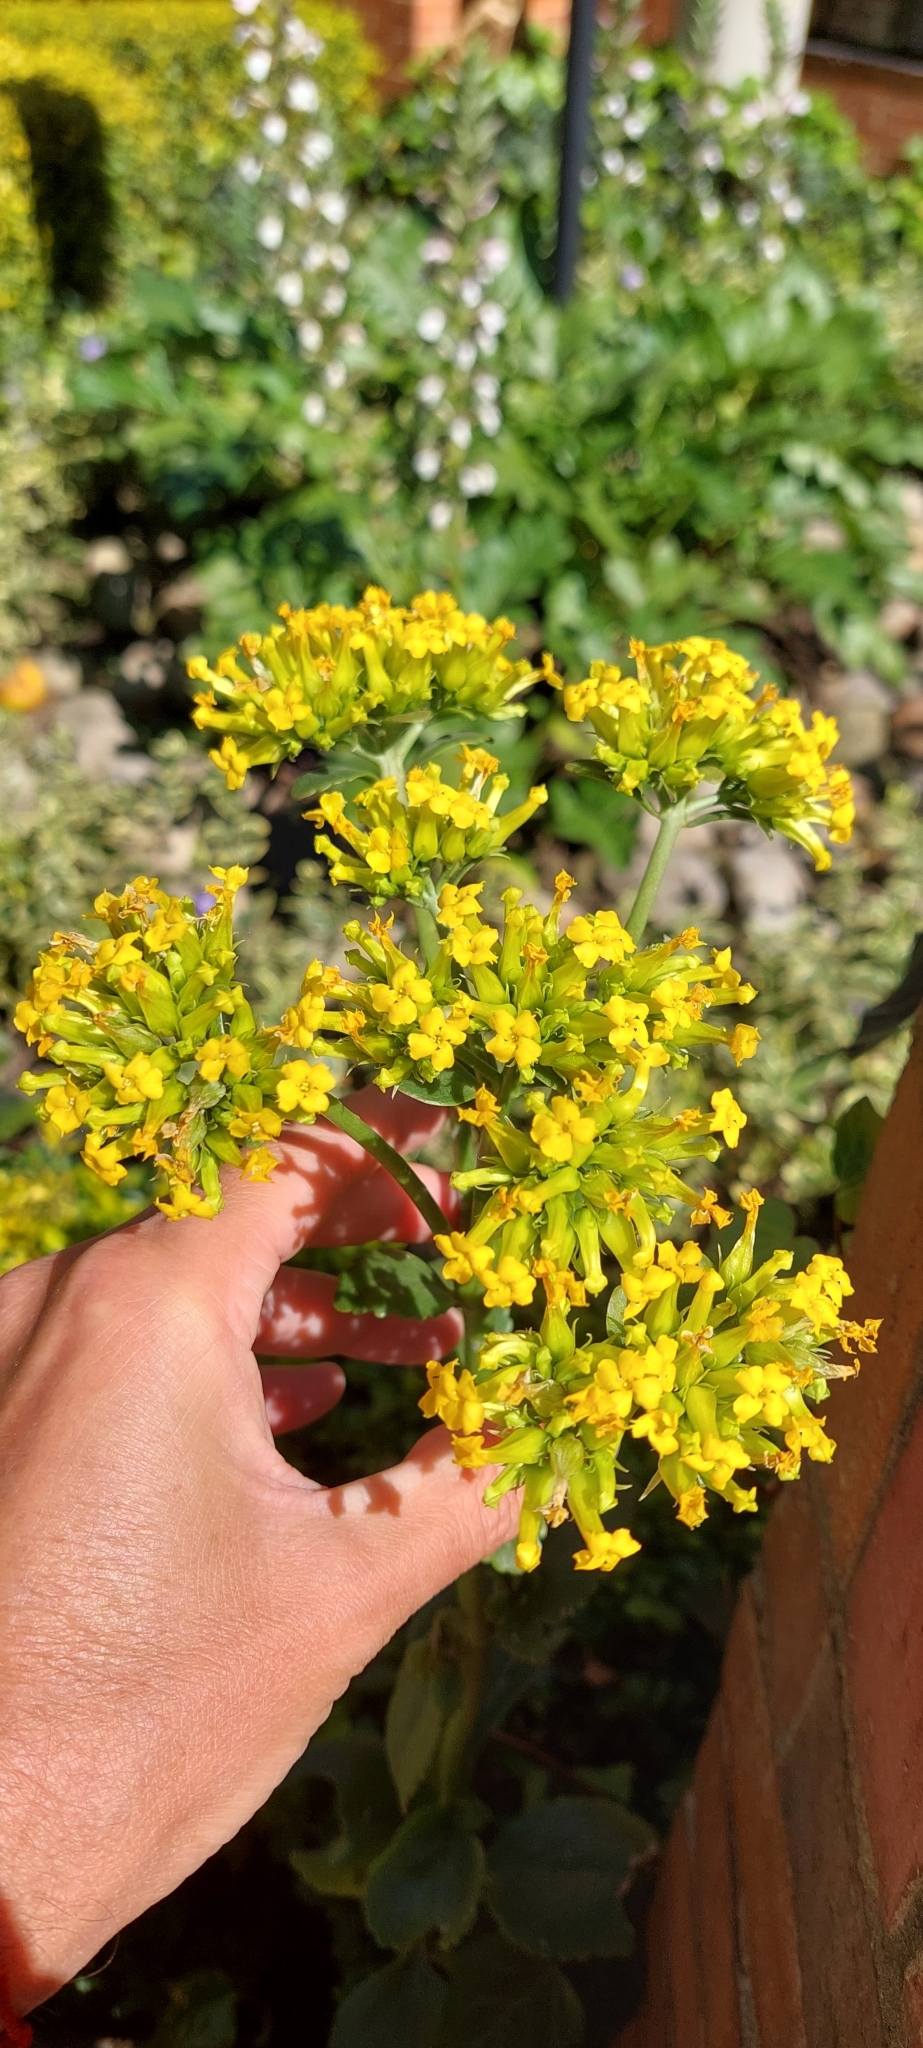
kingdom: Plantae
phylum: Tracheophyta
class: Magnoliopsida
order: Saxifragales
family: Crassulaceae
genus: Kalanchoe
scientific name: Kalanchoe densiflora
